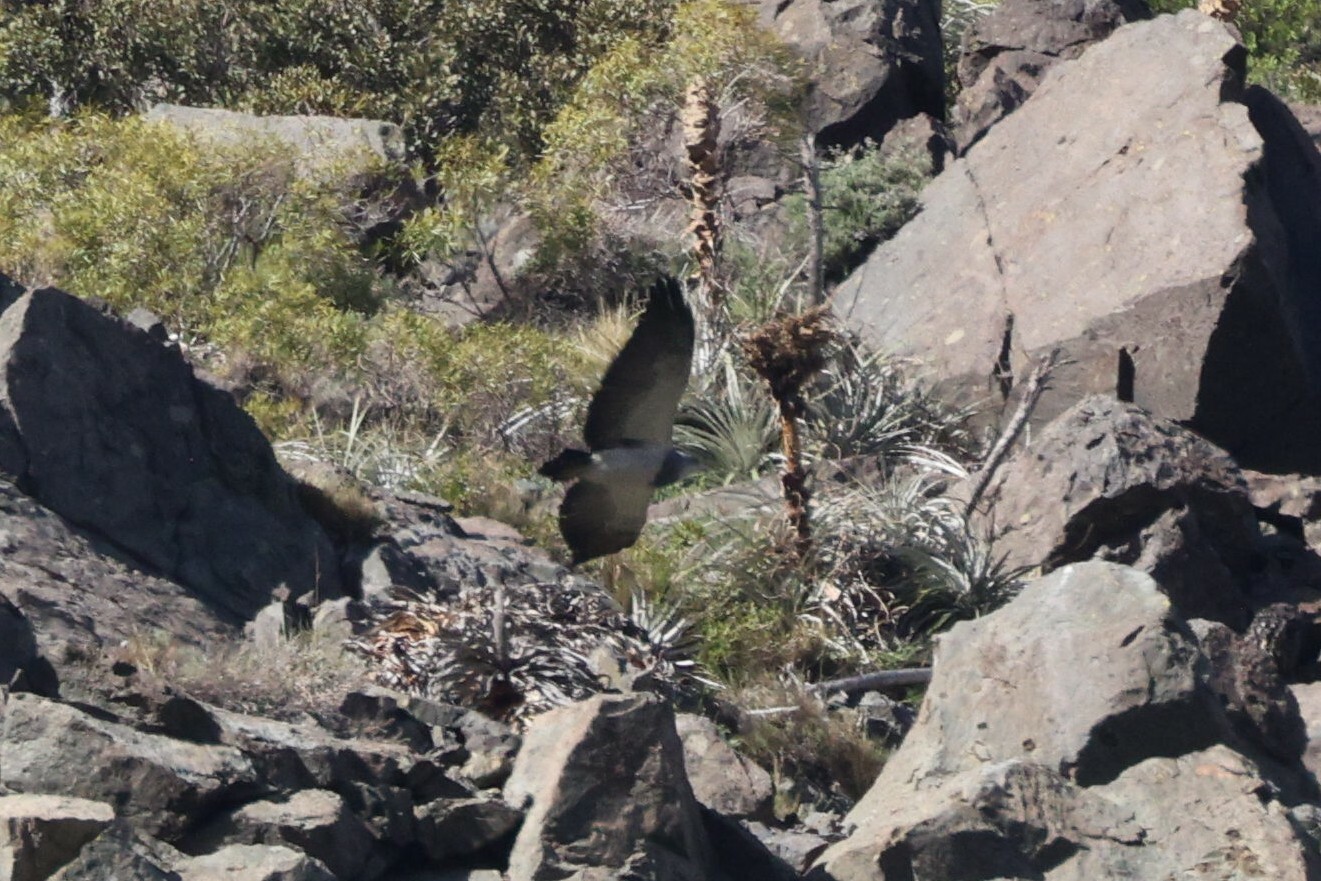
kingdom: Animalia
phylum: Chordata
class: Aves
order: Accipitriformes
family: Accipitridae
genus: Geranoaetus
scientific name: Geranoaetus melanoleucus
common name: Black-chested buzzard-eagle
